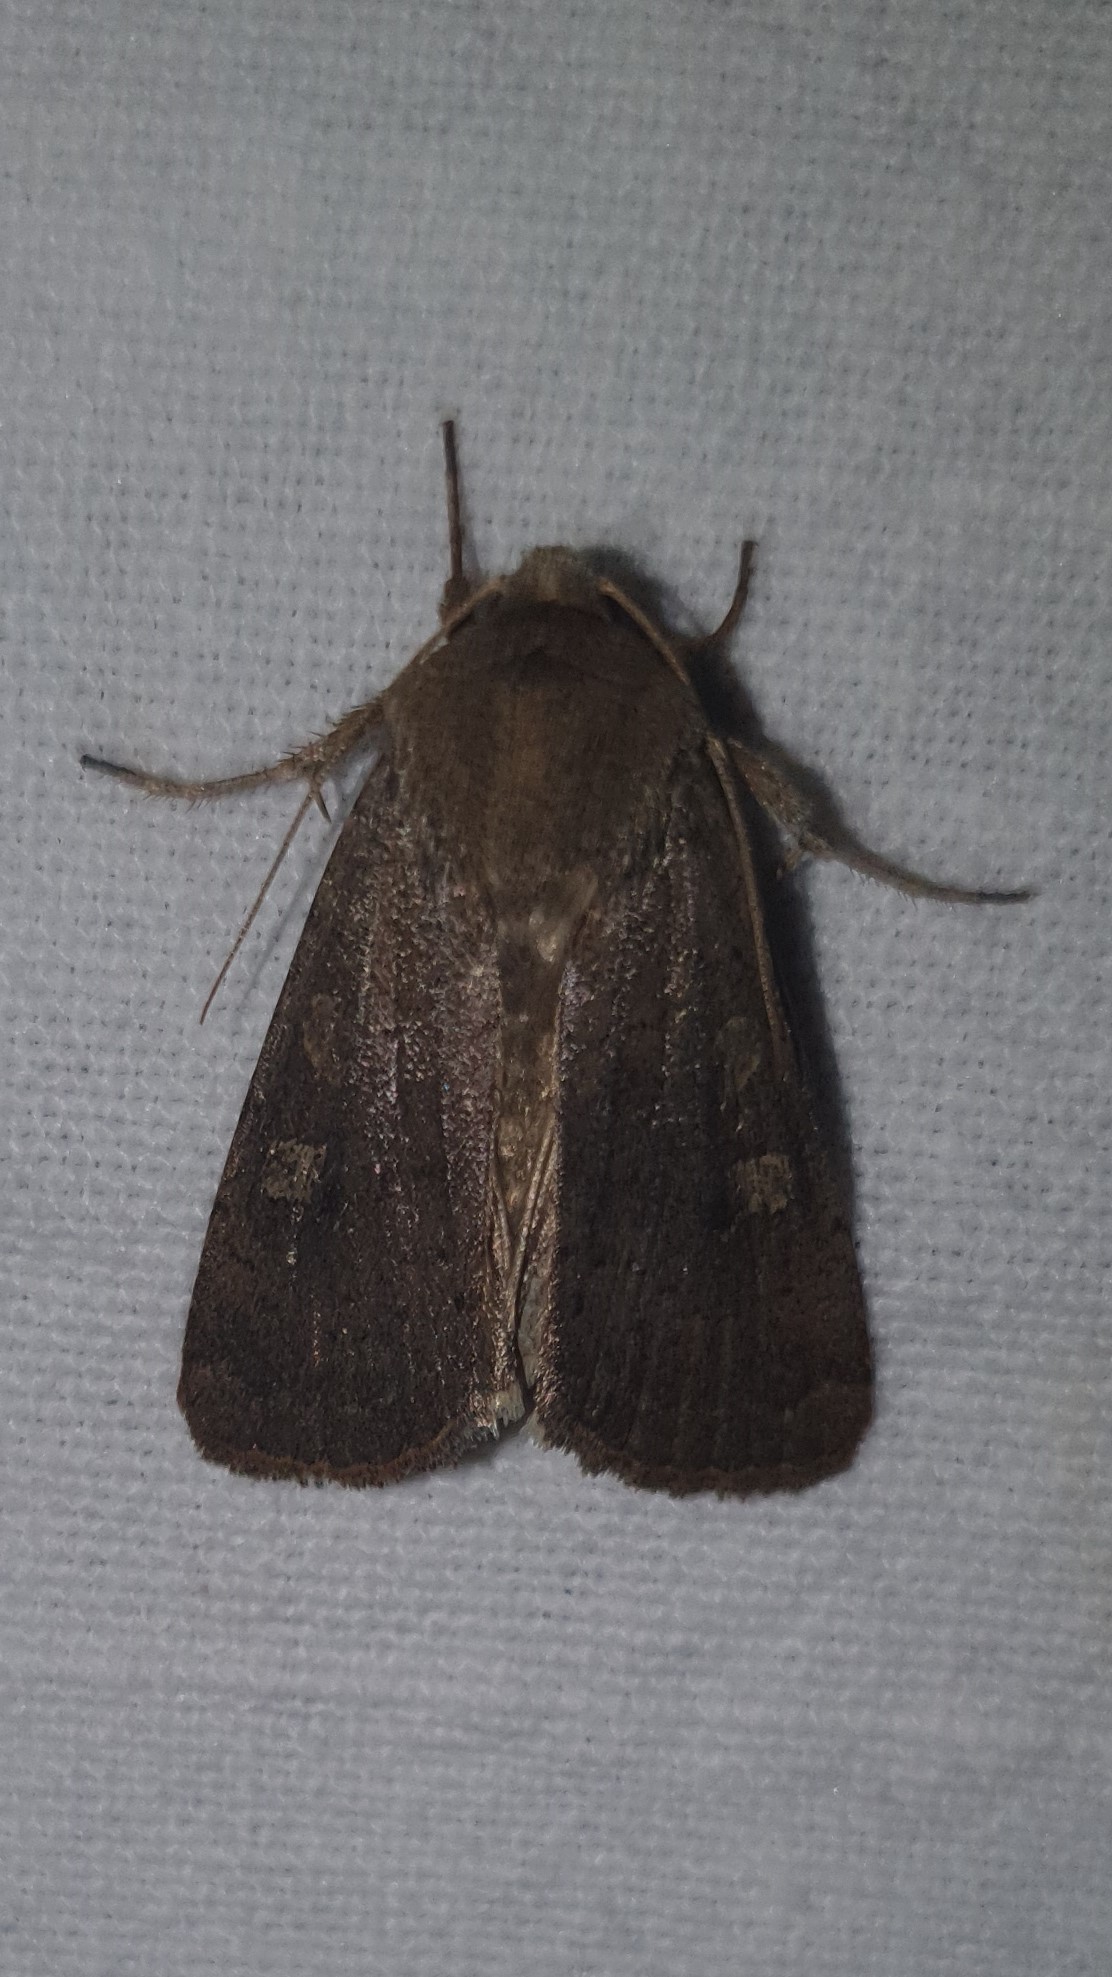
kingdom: Animalia
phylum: Arthropoda
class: Insecta
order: Lepidoptera
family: Noctuidae
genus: Xestia
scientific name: Xestia xanthographa
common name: Square-spot rustic
